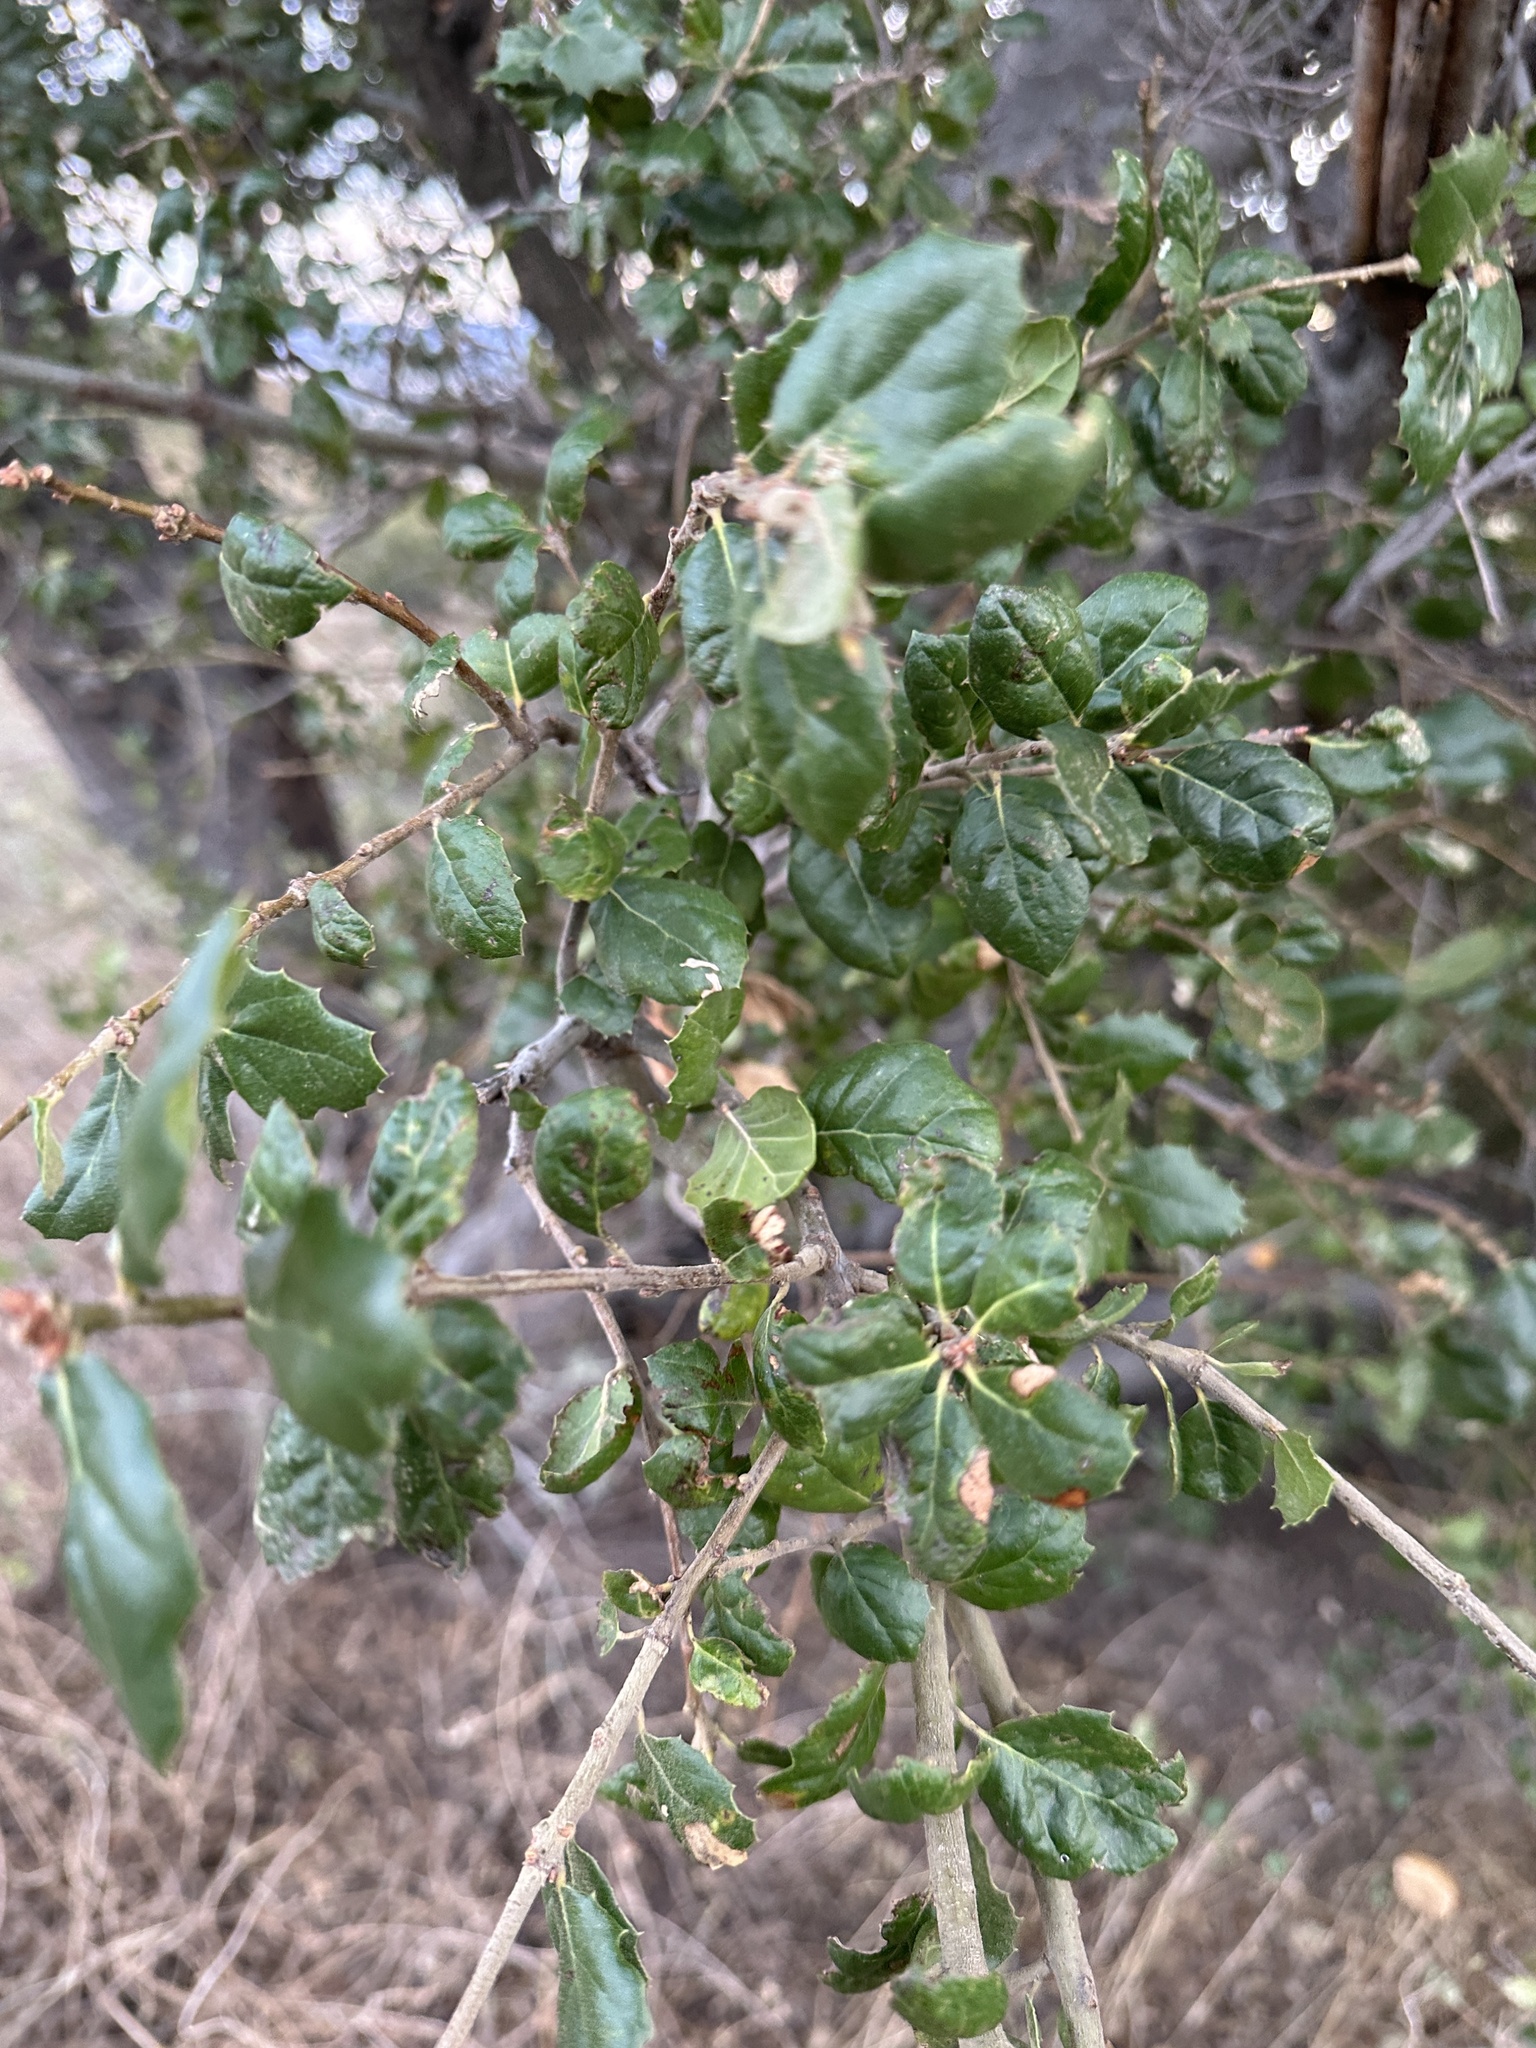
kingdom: Plantae
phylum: Tracheophyta
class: Magnoliopsida
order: Fagales
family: Fagaceae
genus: Quercus
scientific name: Quercus agrifolia
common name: California live oak
